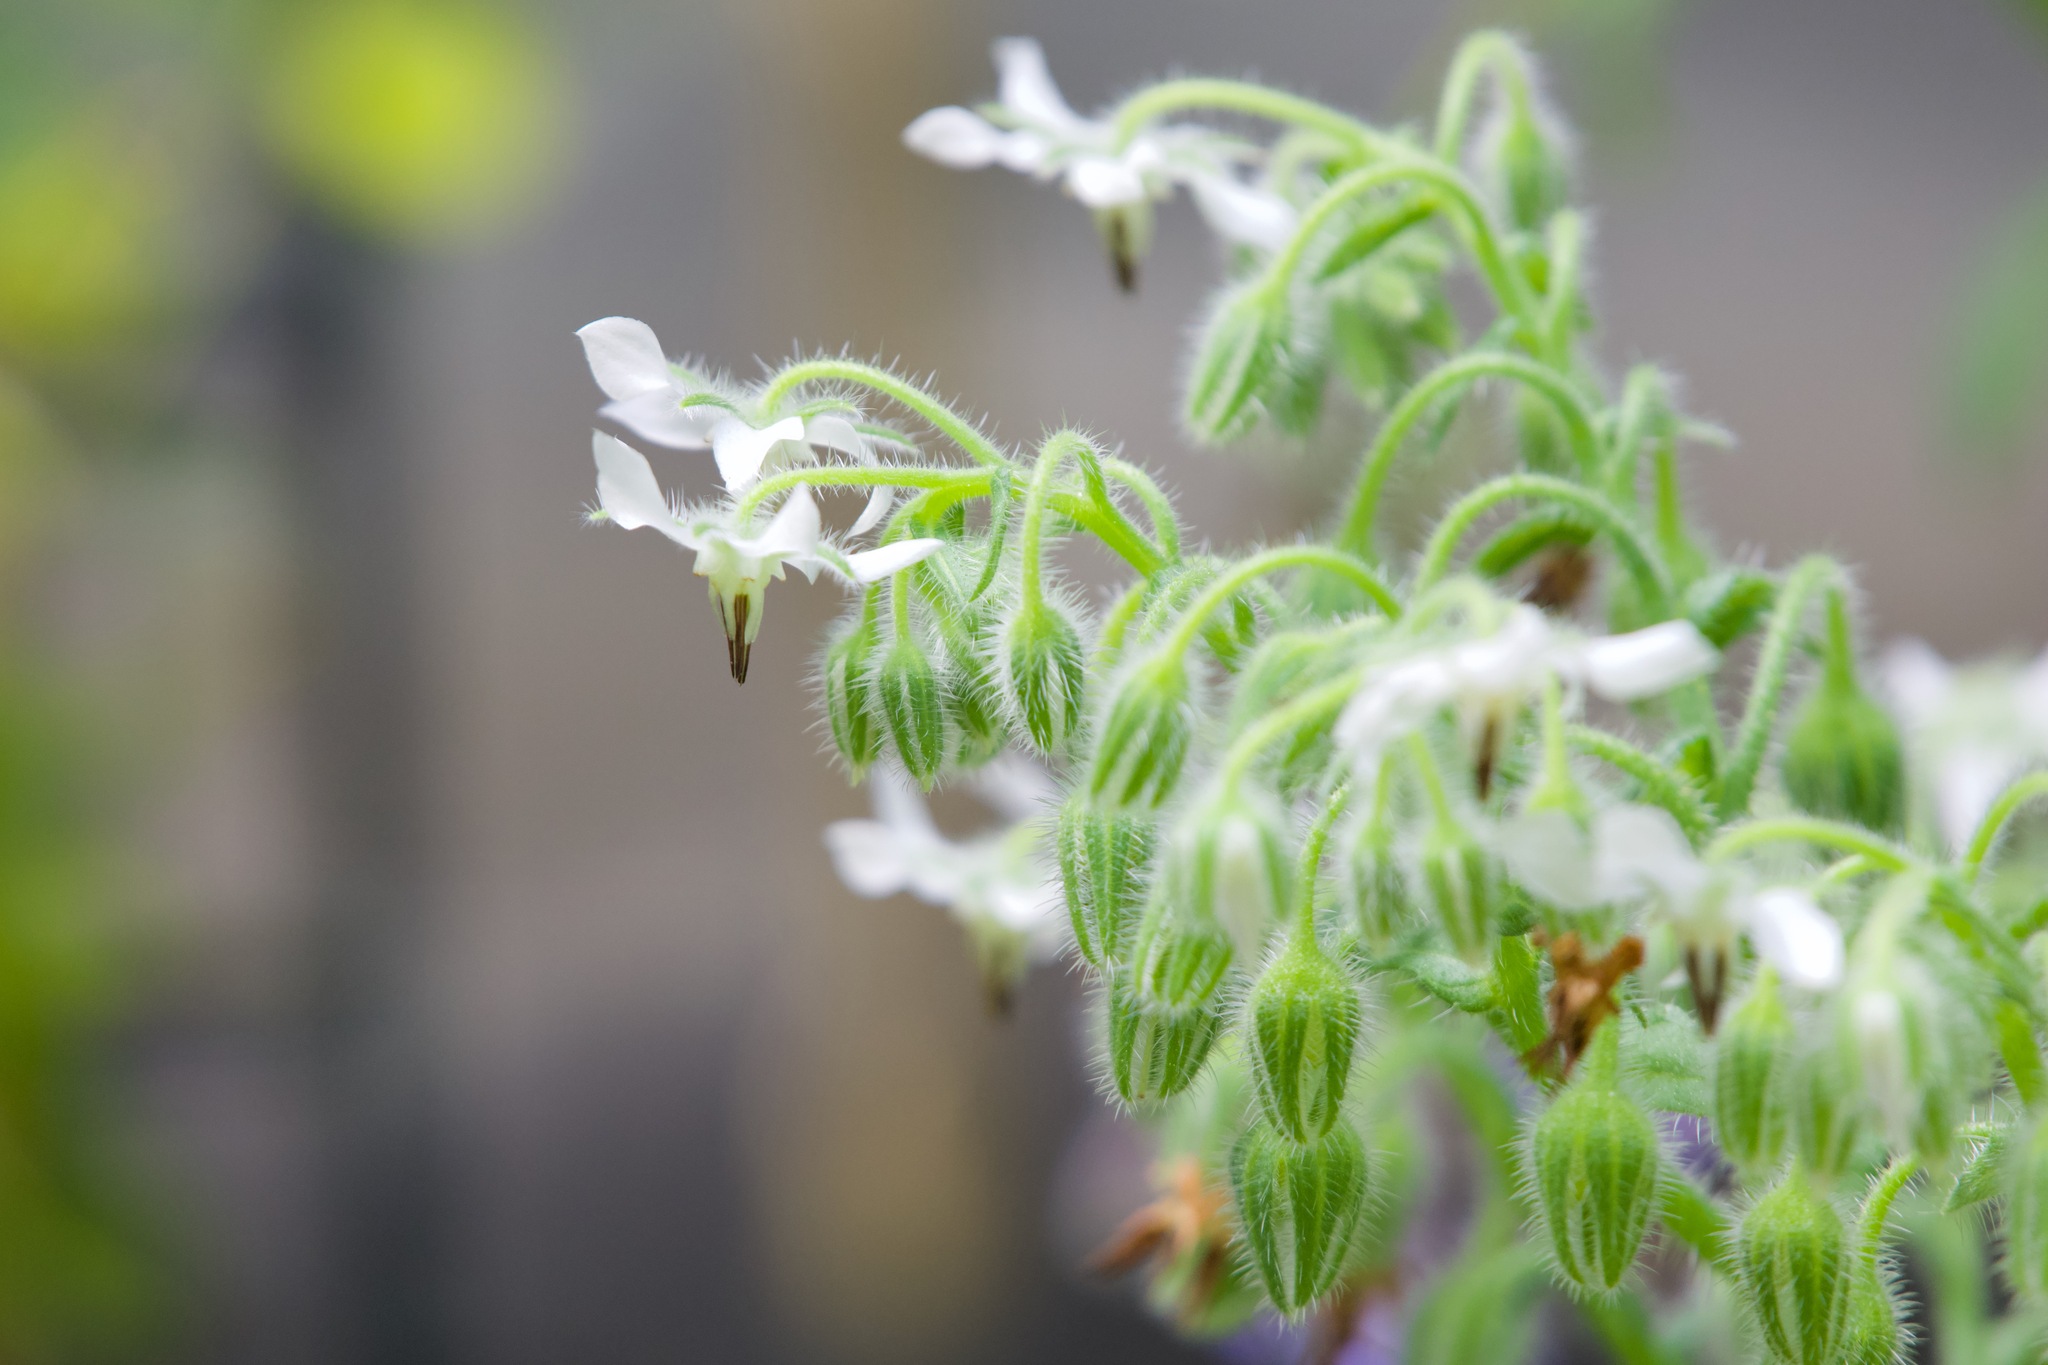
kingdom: Plantae
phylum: Tracheophyta
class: Magnoliopsida
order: Boraginales
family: Boraginaceae
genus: Borago
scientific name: Borago officinalis
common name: Borage
